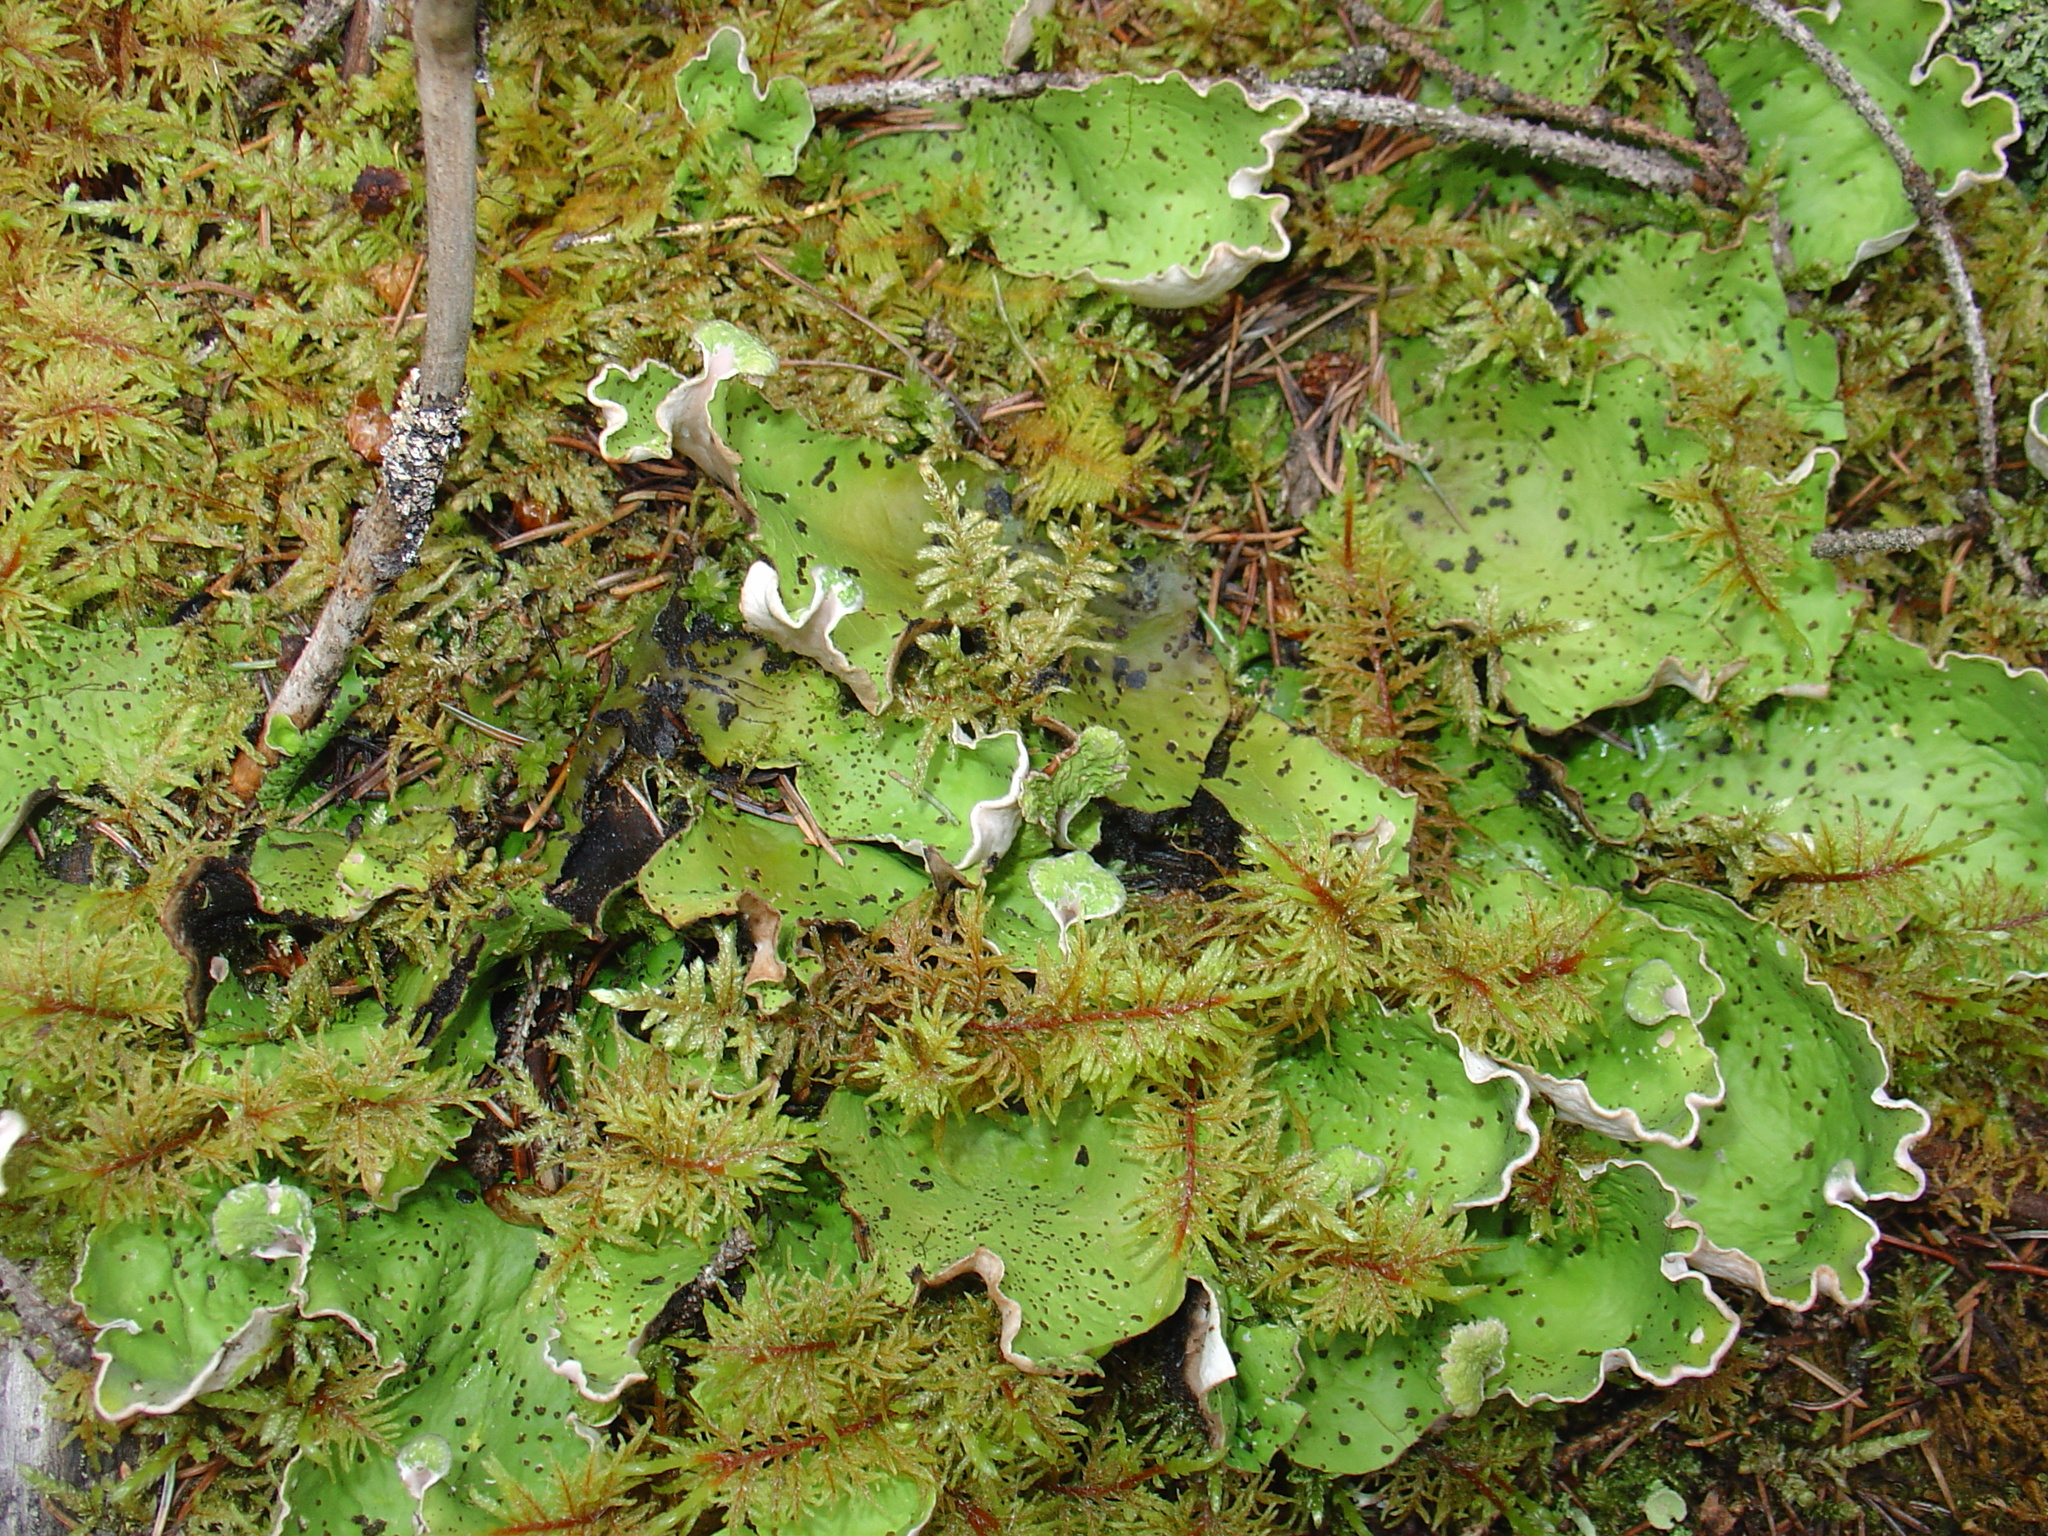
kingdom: Plantae
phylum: Bryophyta
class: Bryopsida
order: Hypnales
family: Hylocomiaceae
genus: Hylocomium
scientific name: Hylocomium splendens
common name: Stairstep moss
